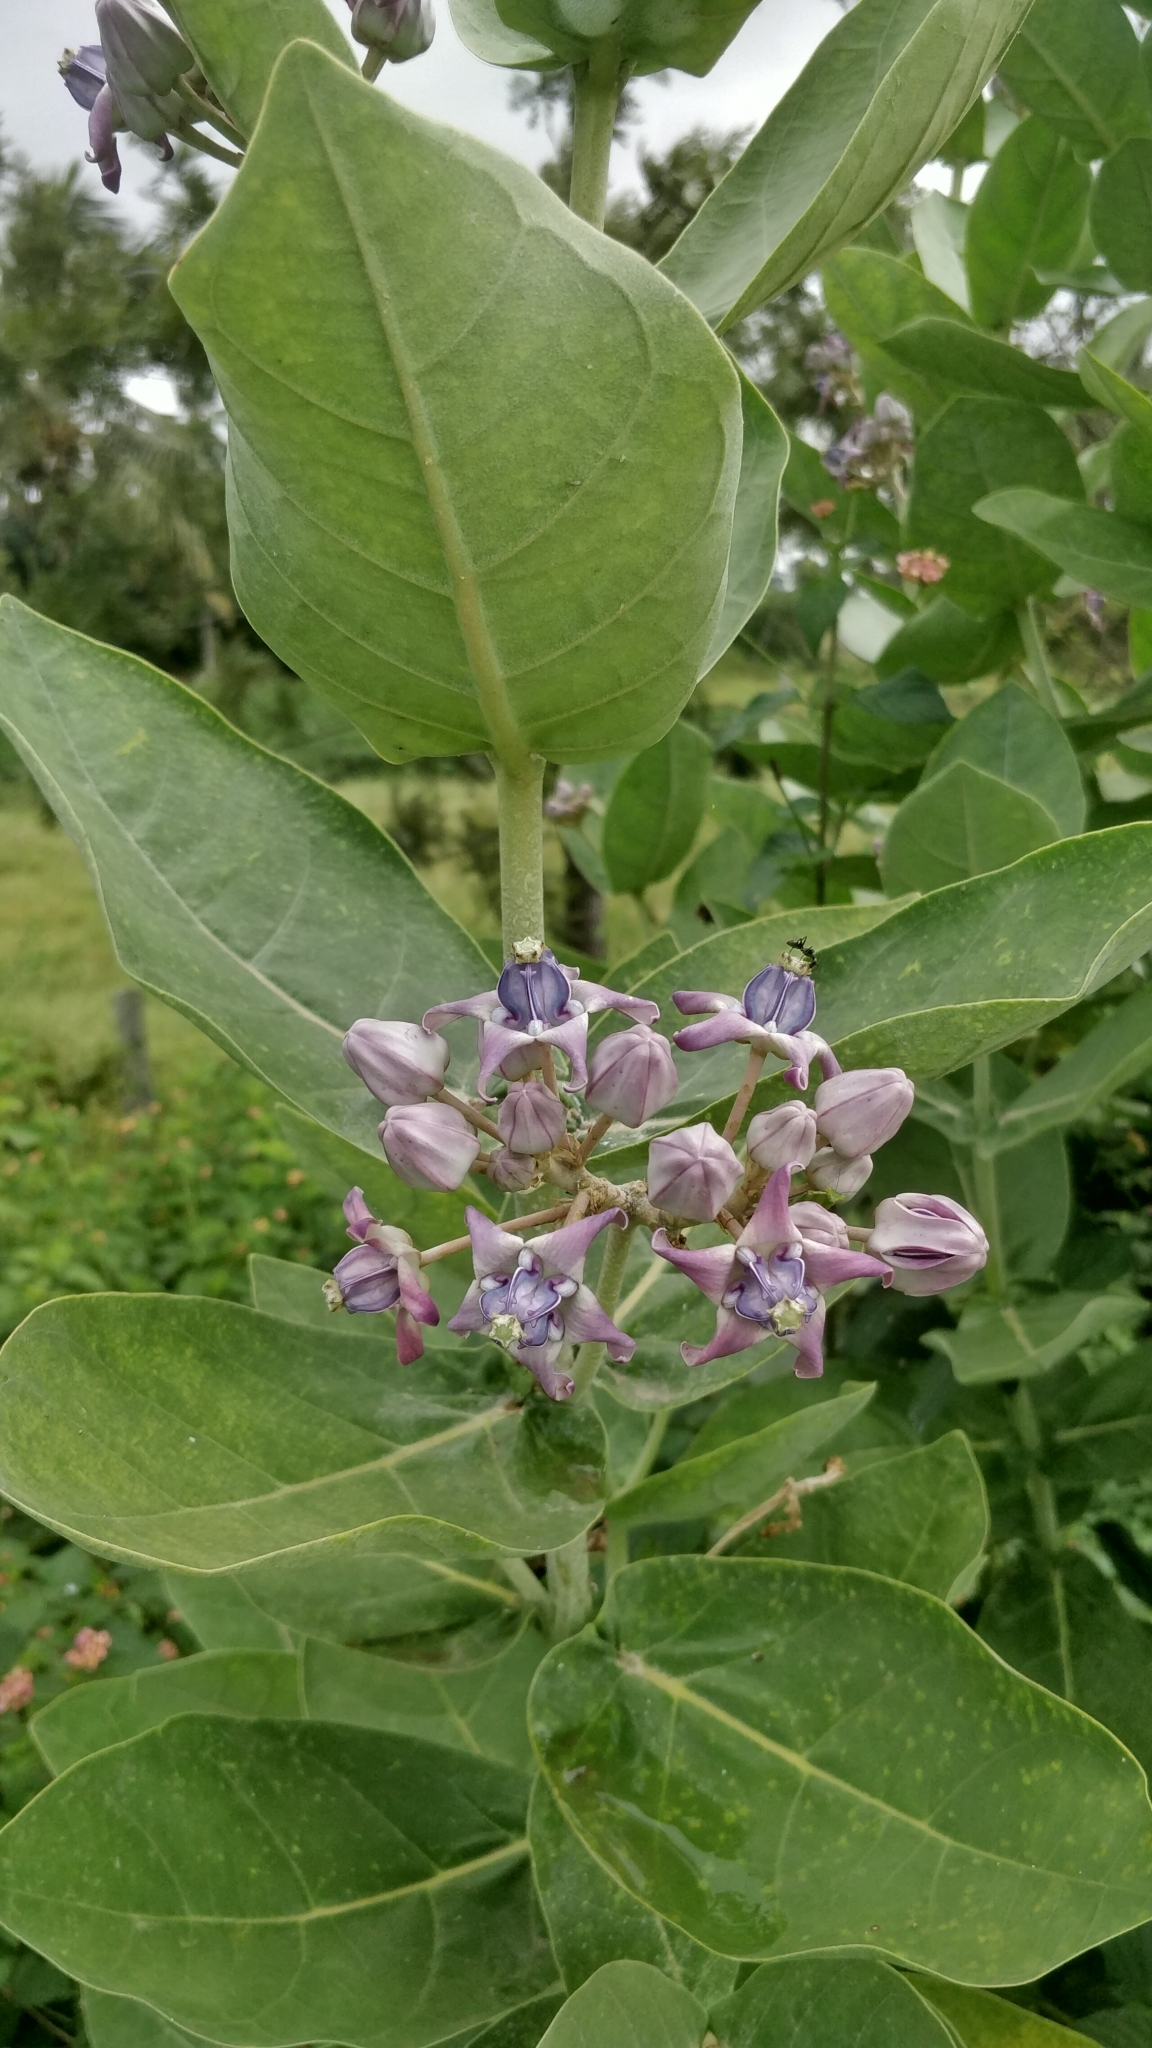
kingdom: Plantae
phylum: Tracheophyta
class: Magnoliopsida
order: Gentianales
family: Apocynaceae
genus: Calotropis
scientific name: Calotropis gigantea
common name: Crown flower
